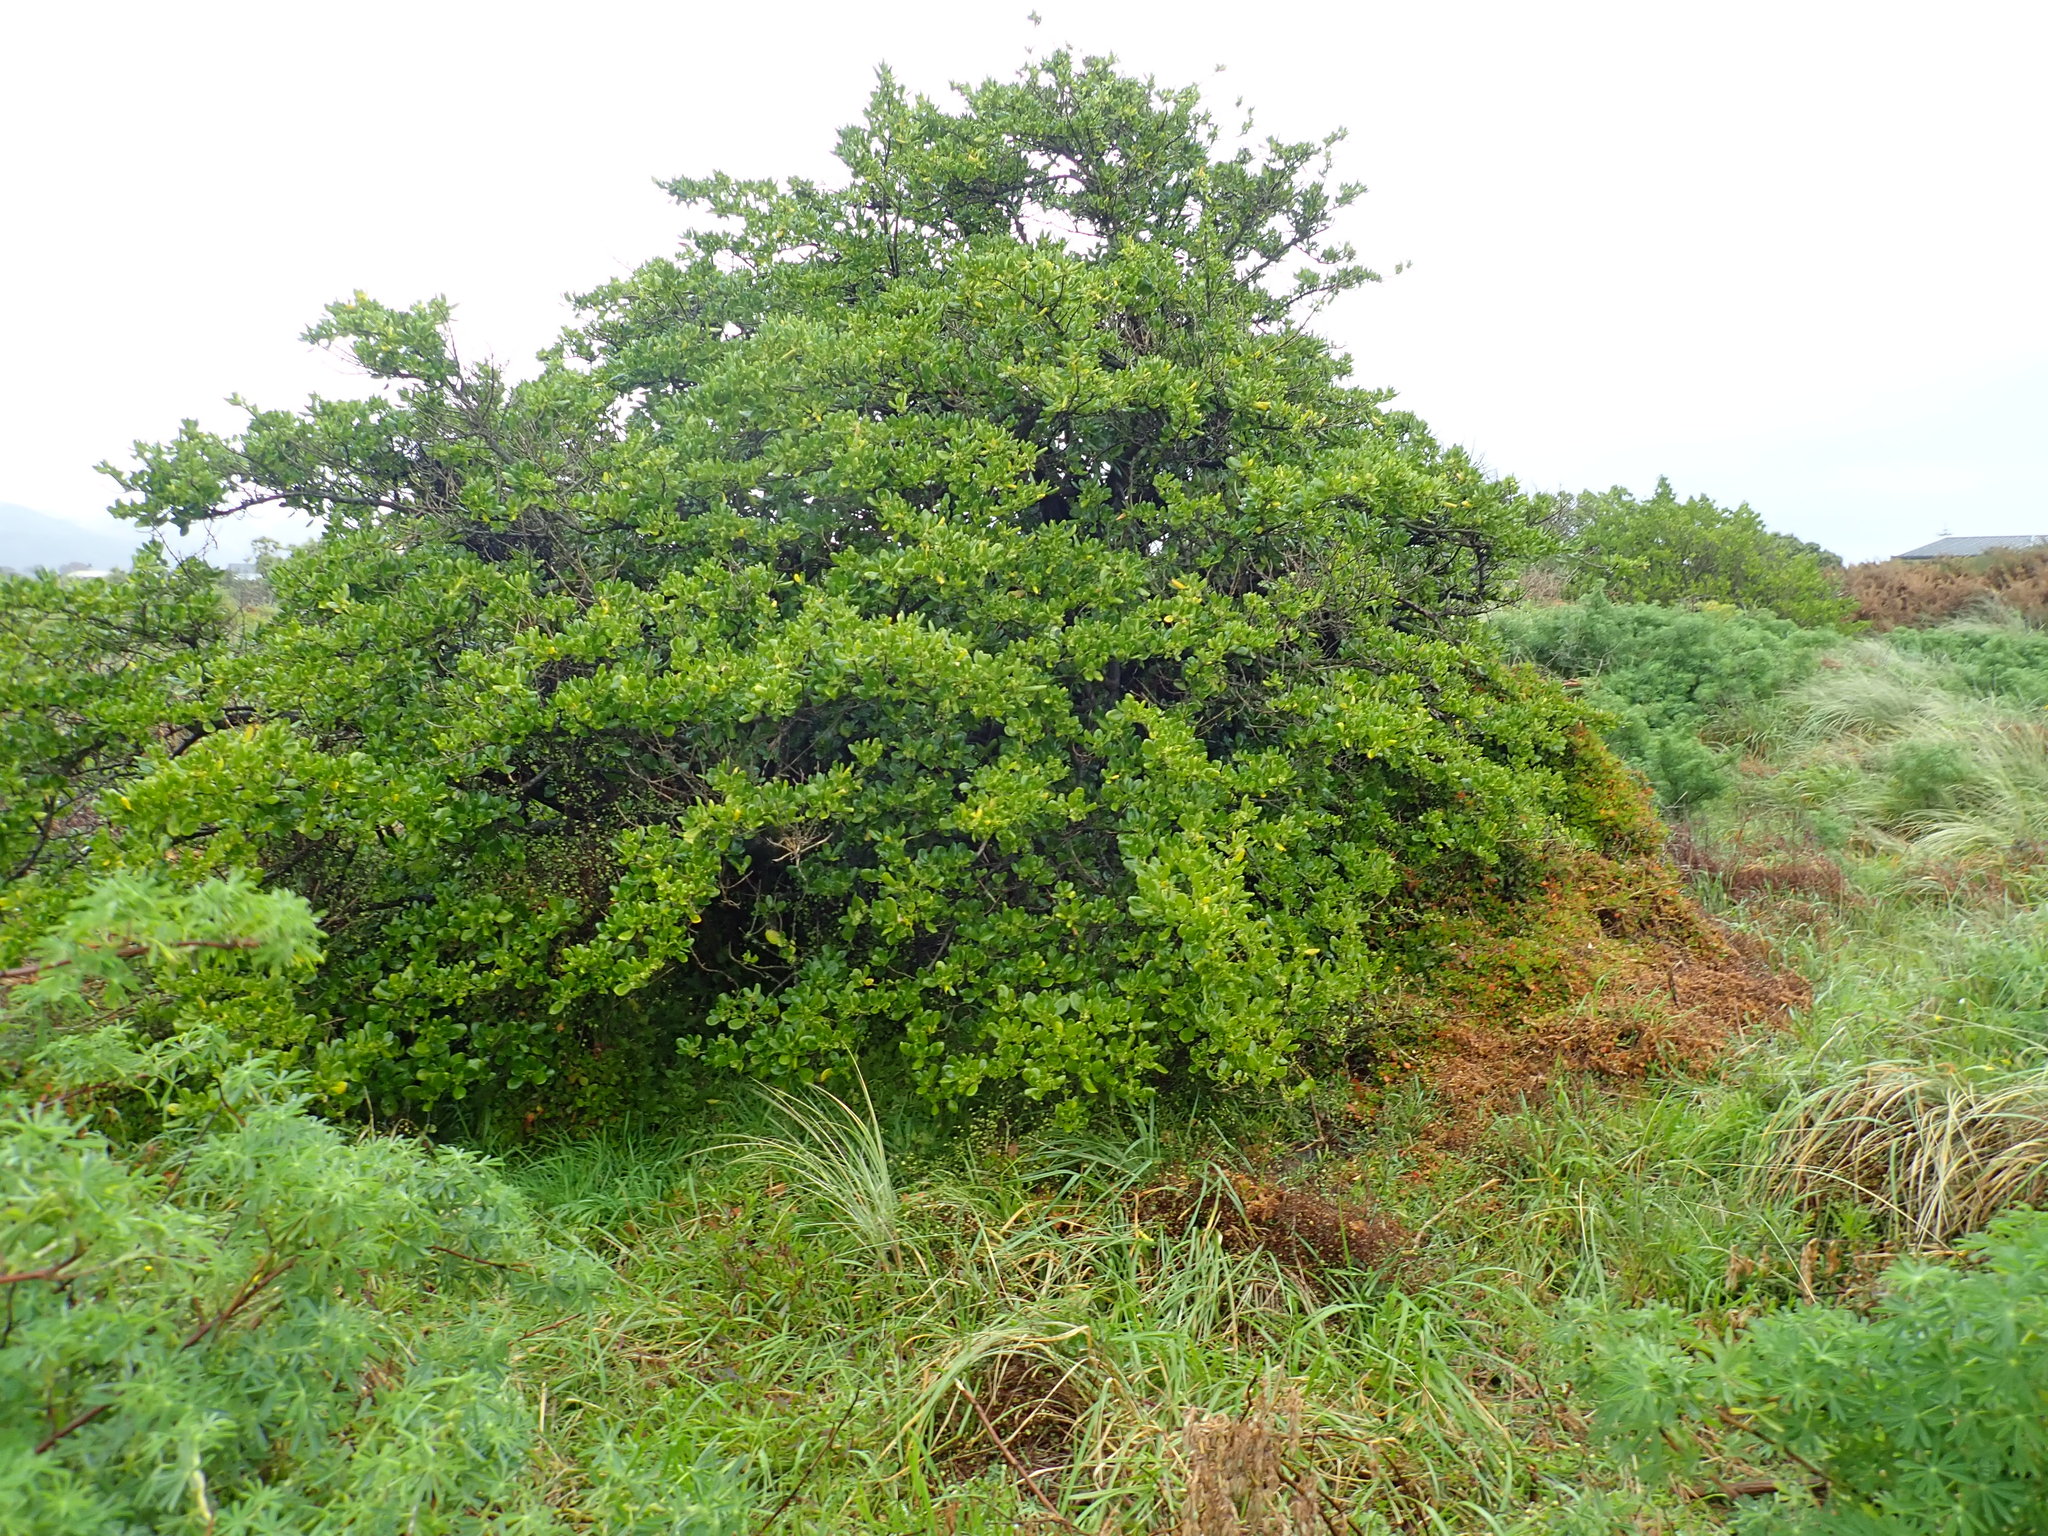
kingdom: Plantae
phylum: Tracheophyta
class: Magnoliopsida
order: Gentianales
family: Rubiaceae
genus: Coprosma
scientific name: Coprosma repens
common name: Tree bedstraw
